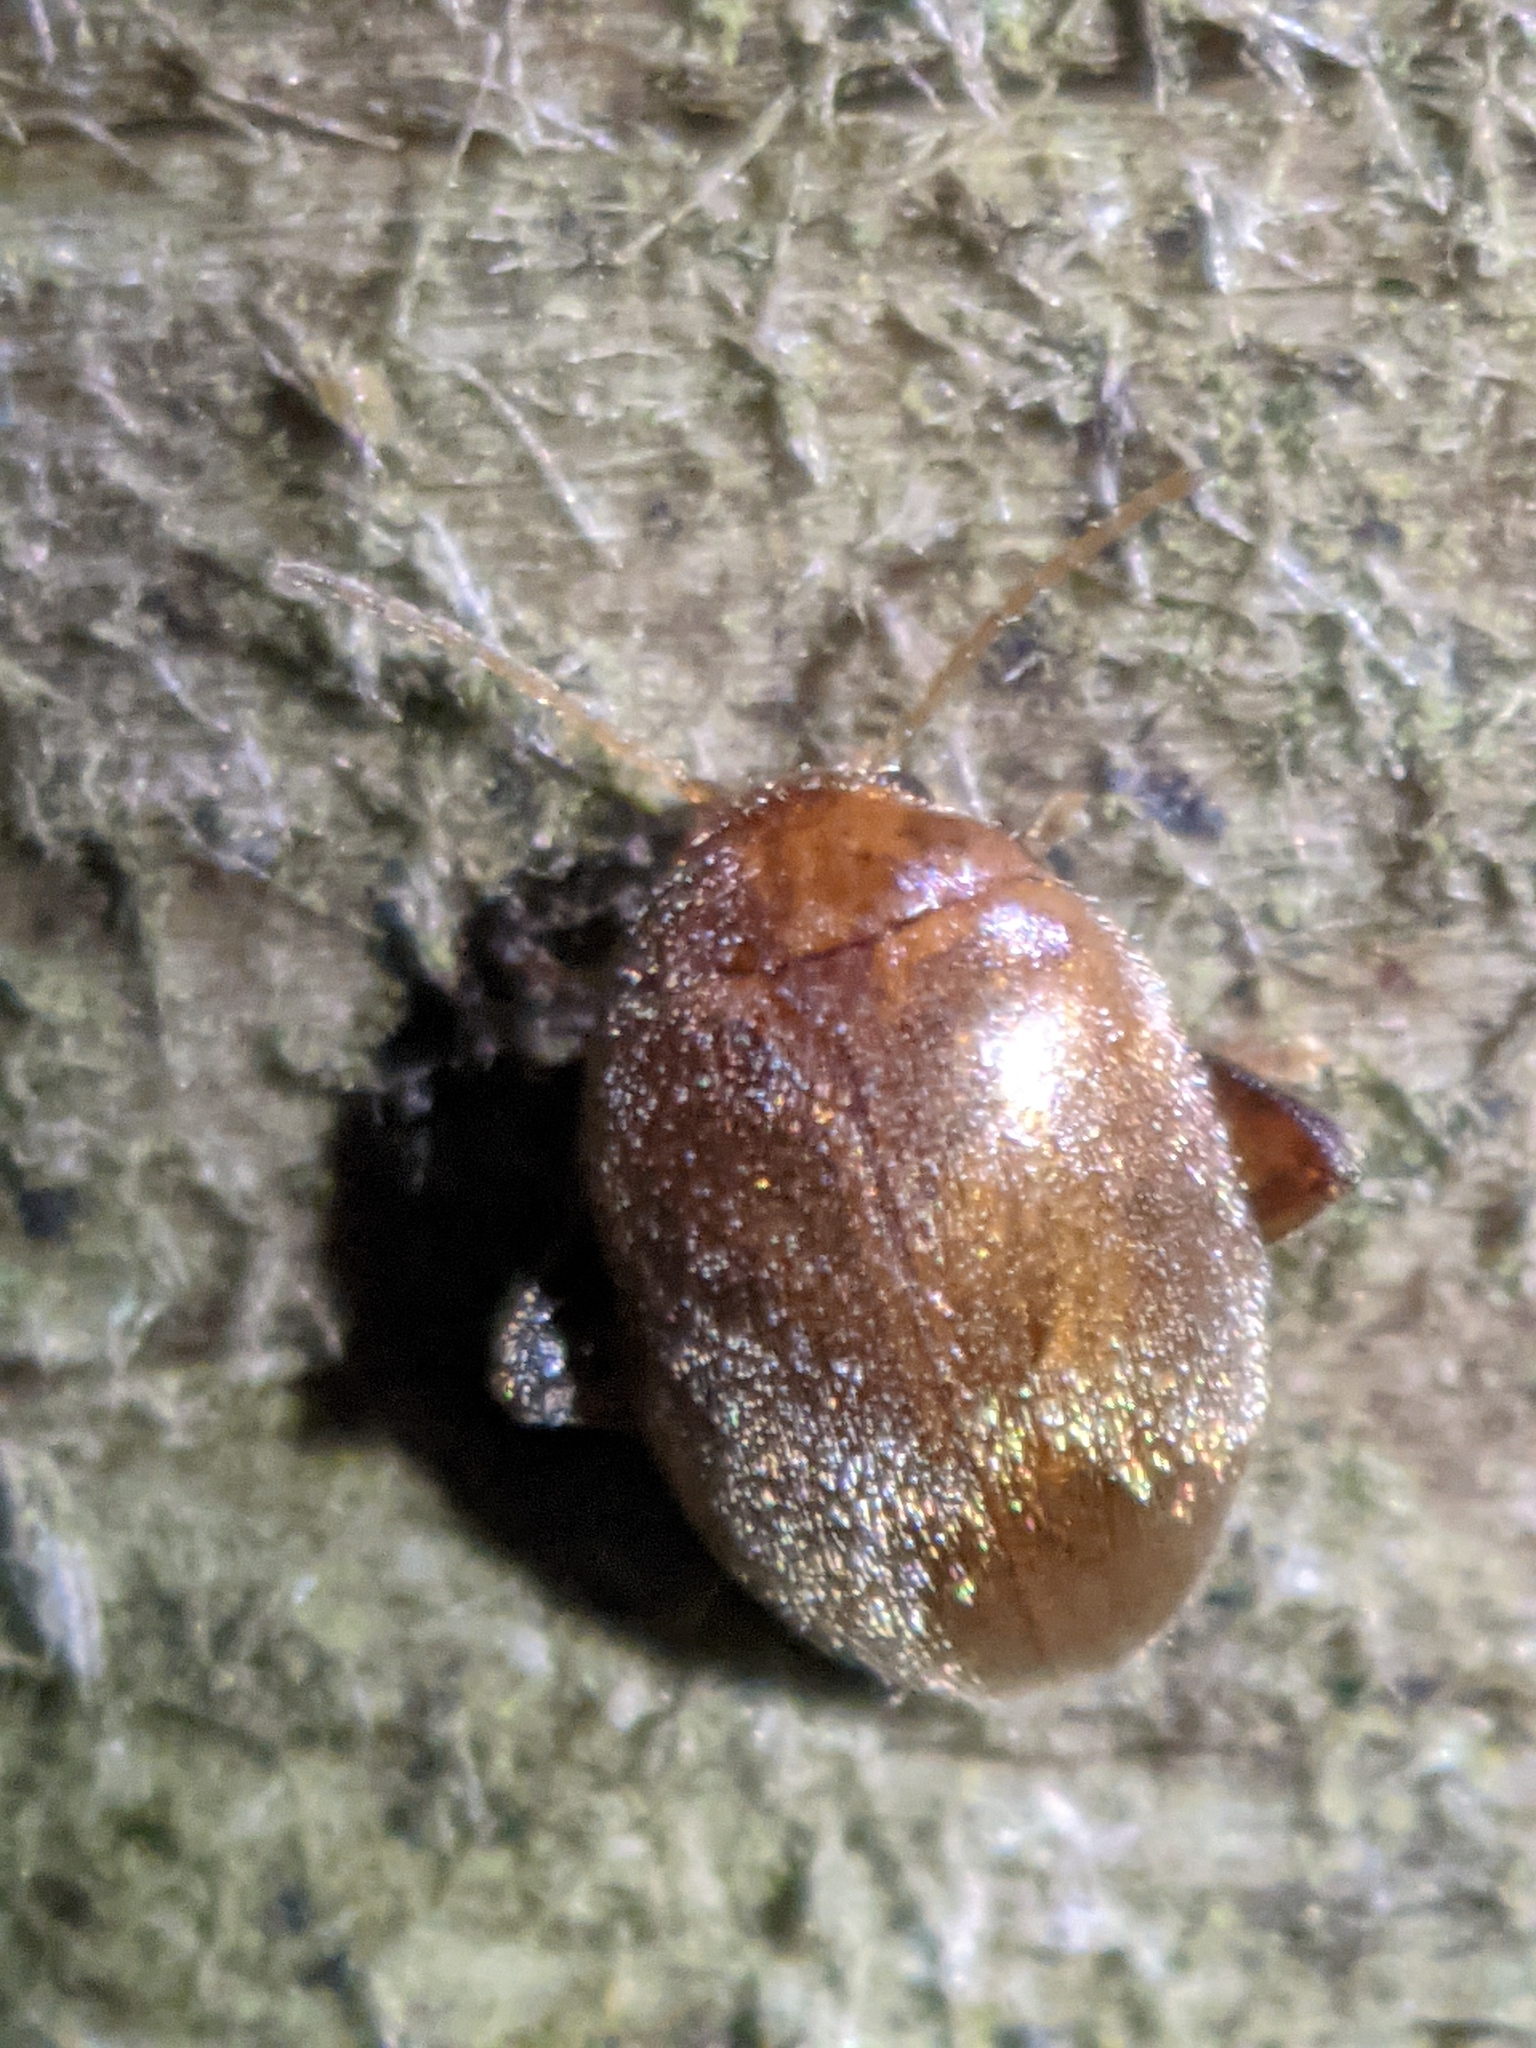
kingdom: Animalia
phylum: Arthropoda
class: Insecta
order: Coleoptera
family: Scirtidae
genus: Scirtes
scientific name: Scirtes tibialis
